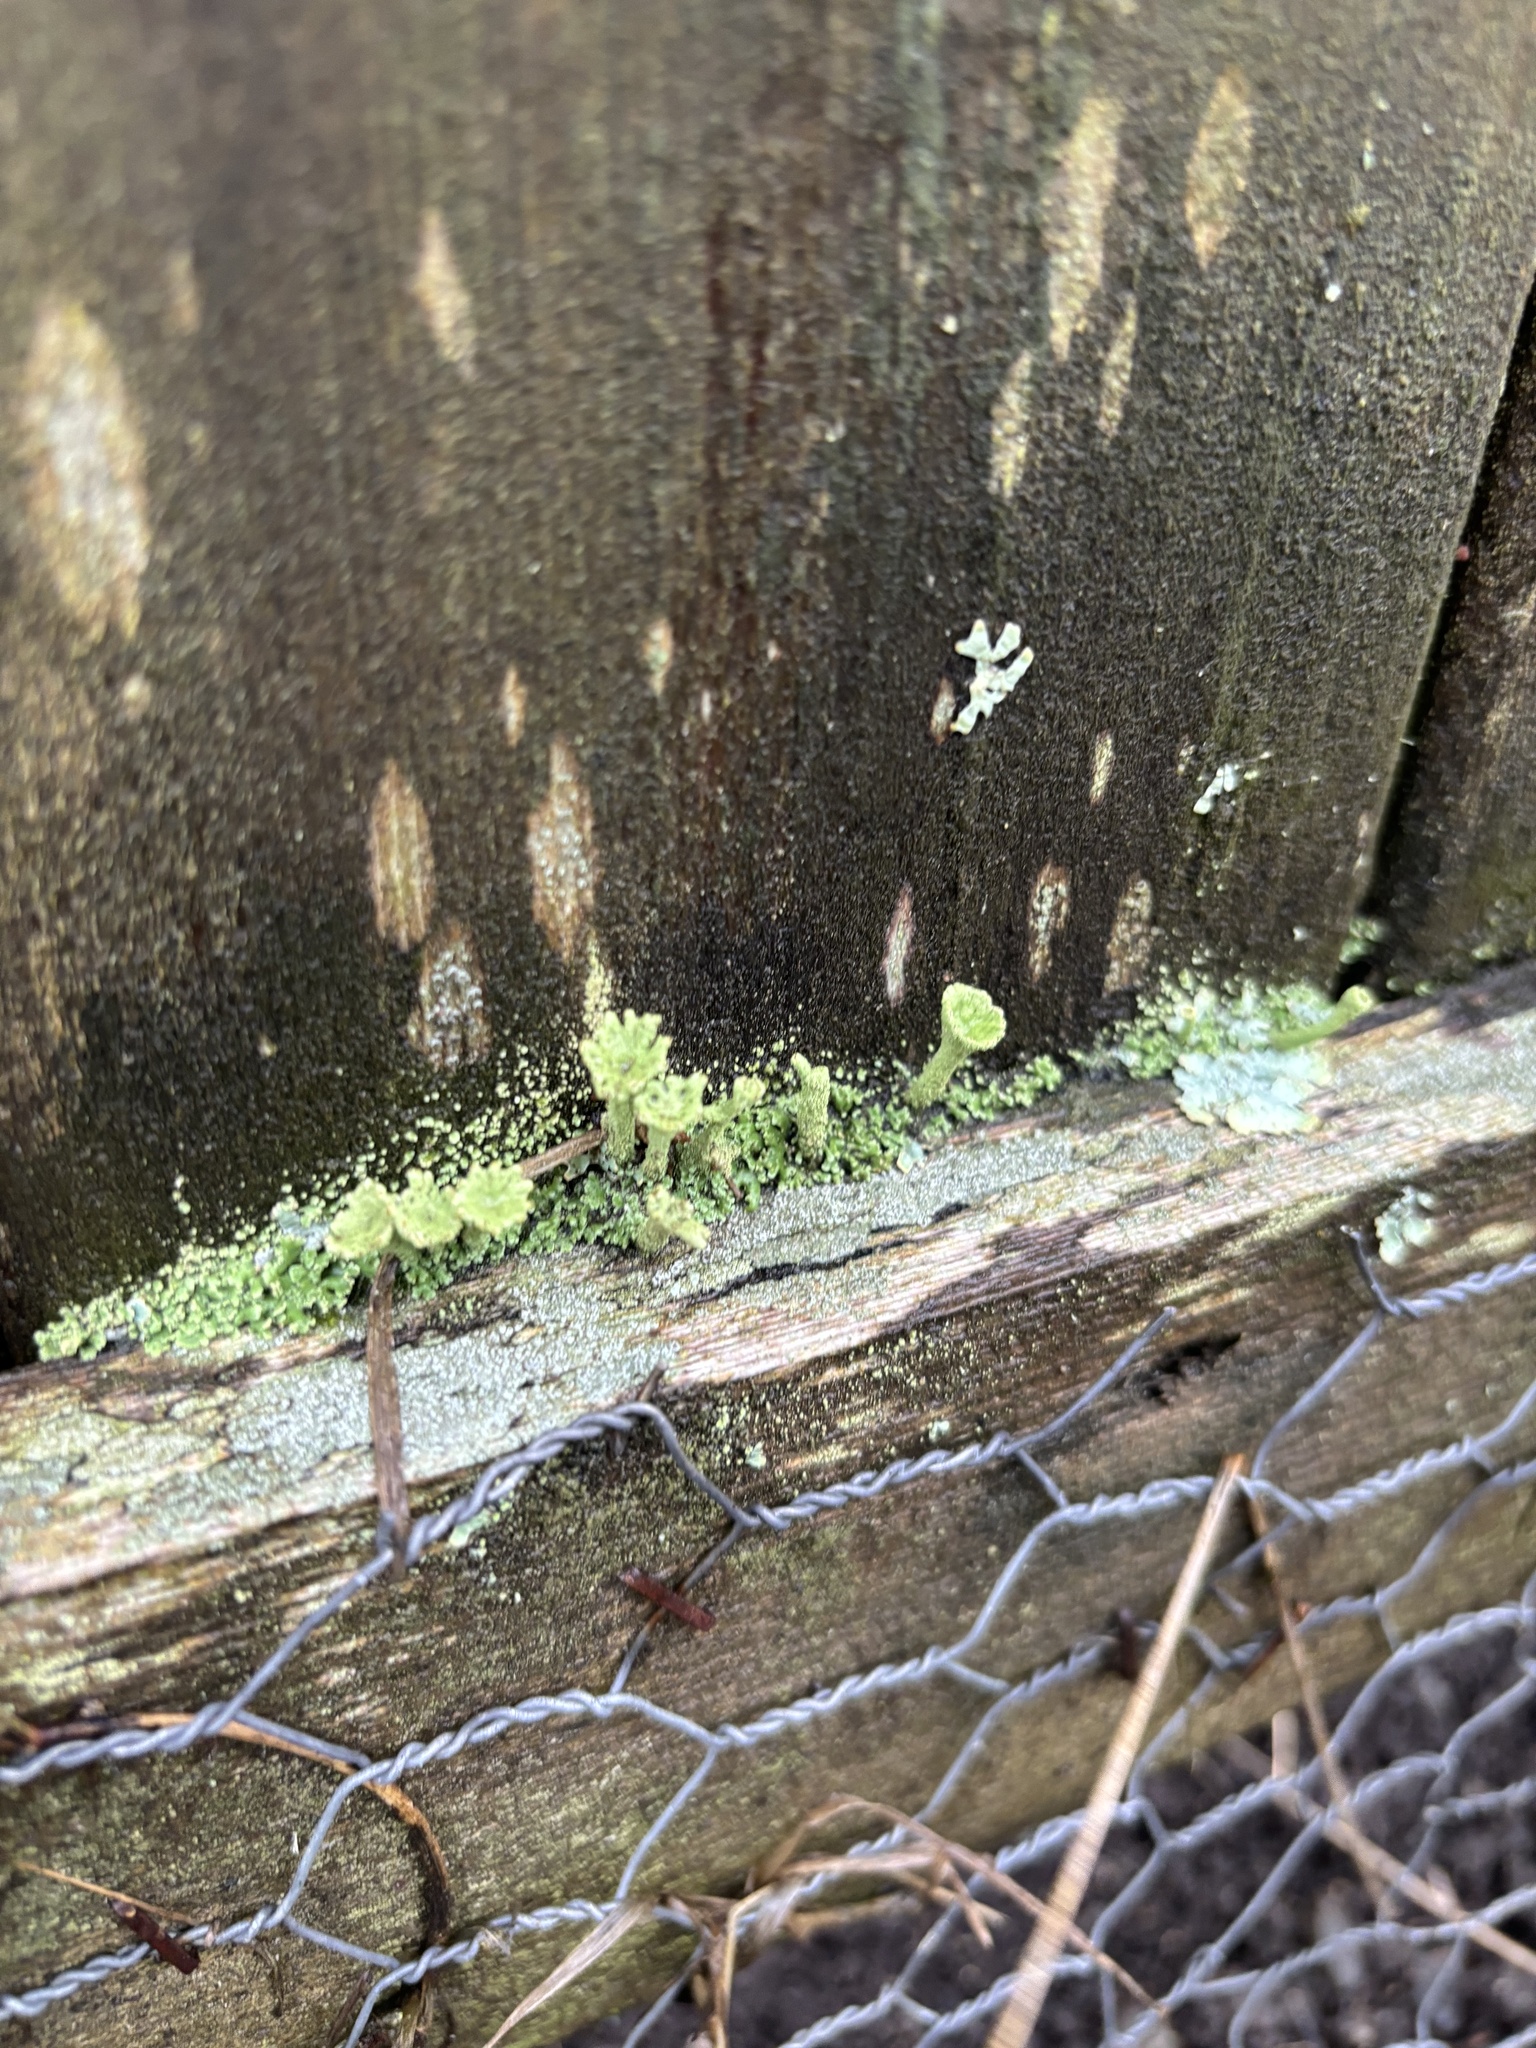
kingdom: Fungi
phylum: Ascomycota
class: Lecanoromycetes
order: Lecanorales
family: Cladoniaceae
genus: Cladonia
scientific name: Cladonia fimbriata
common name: Powdered trumpet lichen
